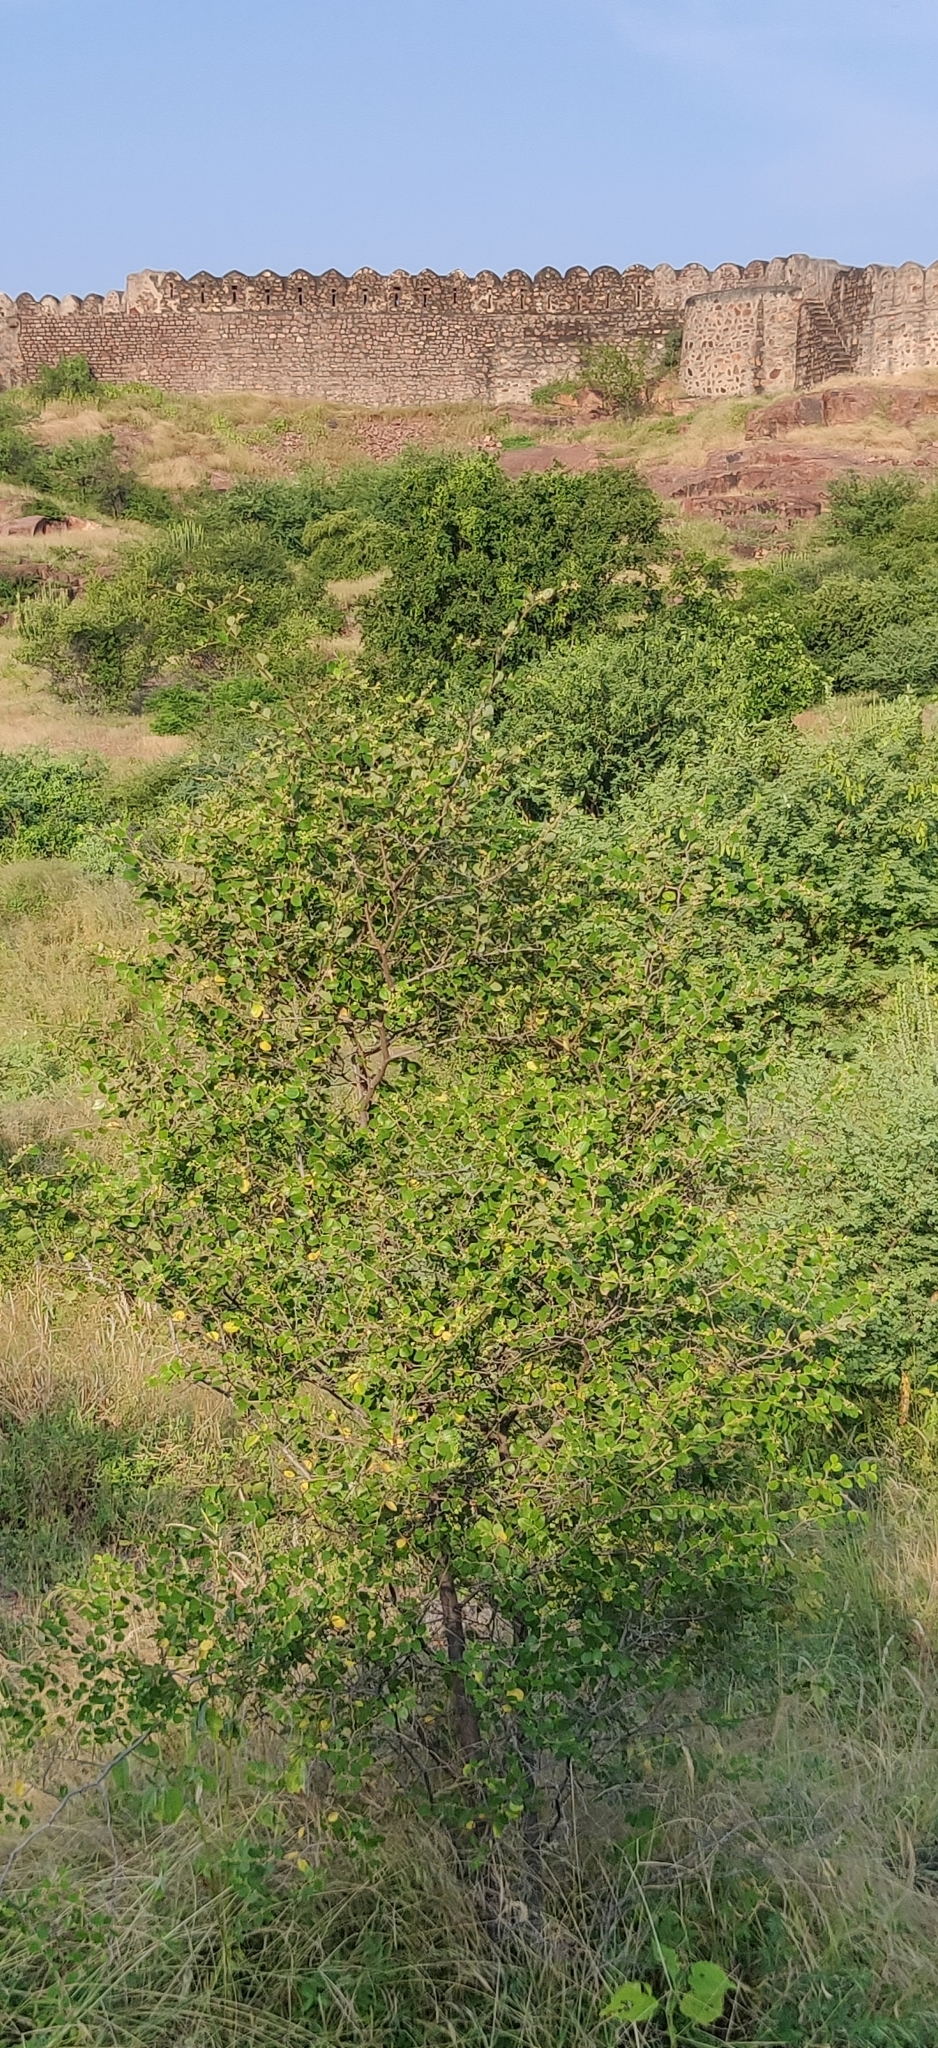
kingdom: Plantae
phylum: Tracheophyta
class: Magnoliopsida
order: Rosales
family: Rhamnaceae
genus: Ziziphus
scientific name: Ziziphus nummularia
